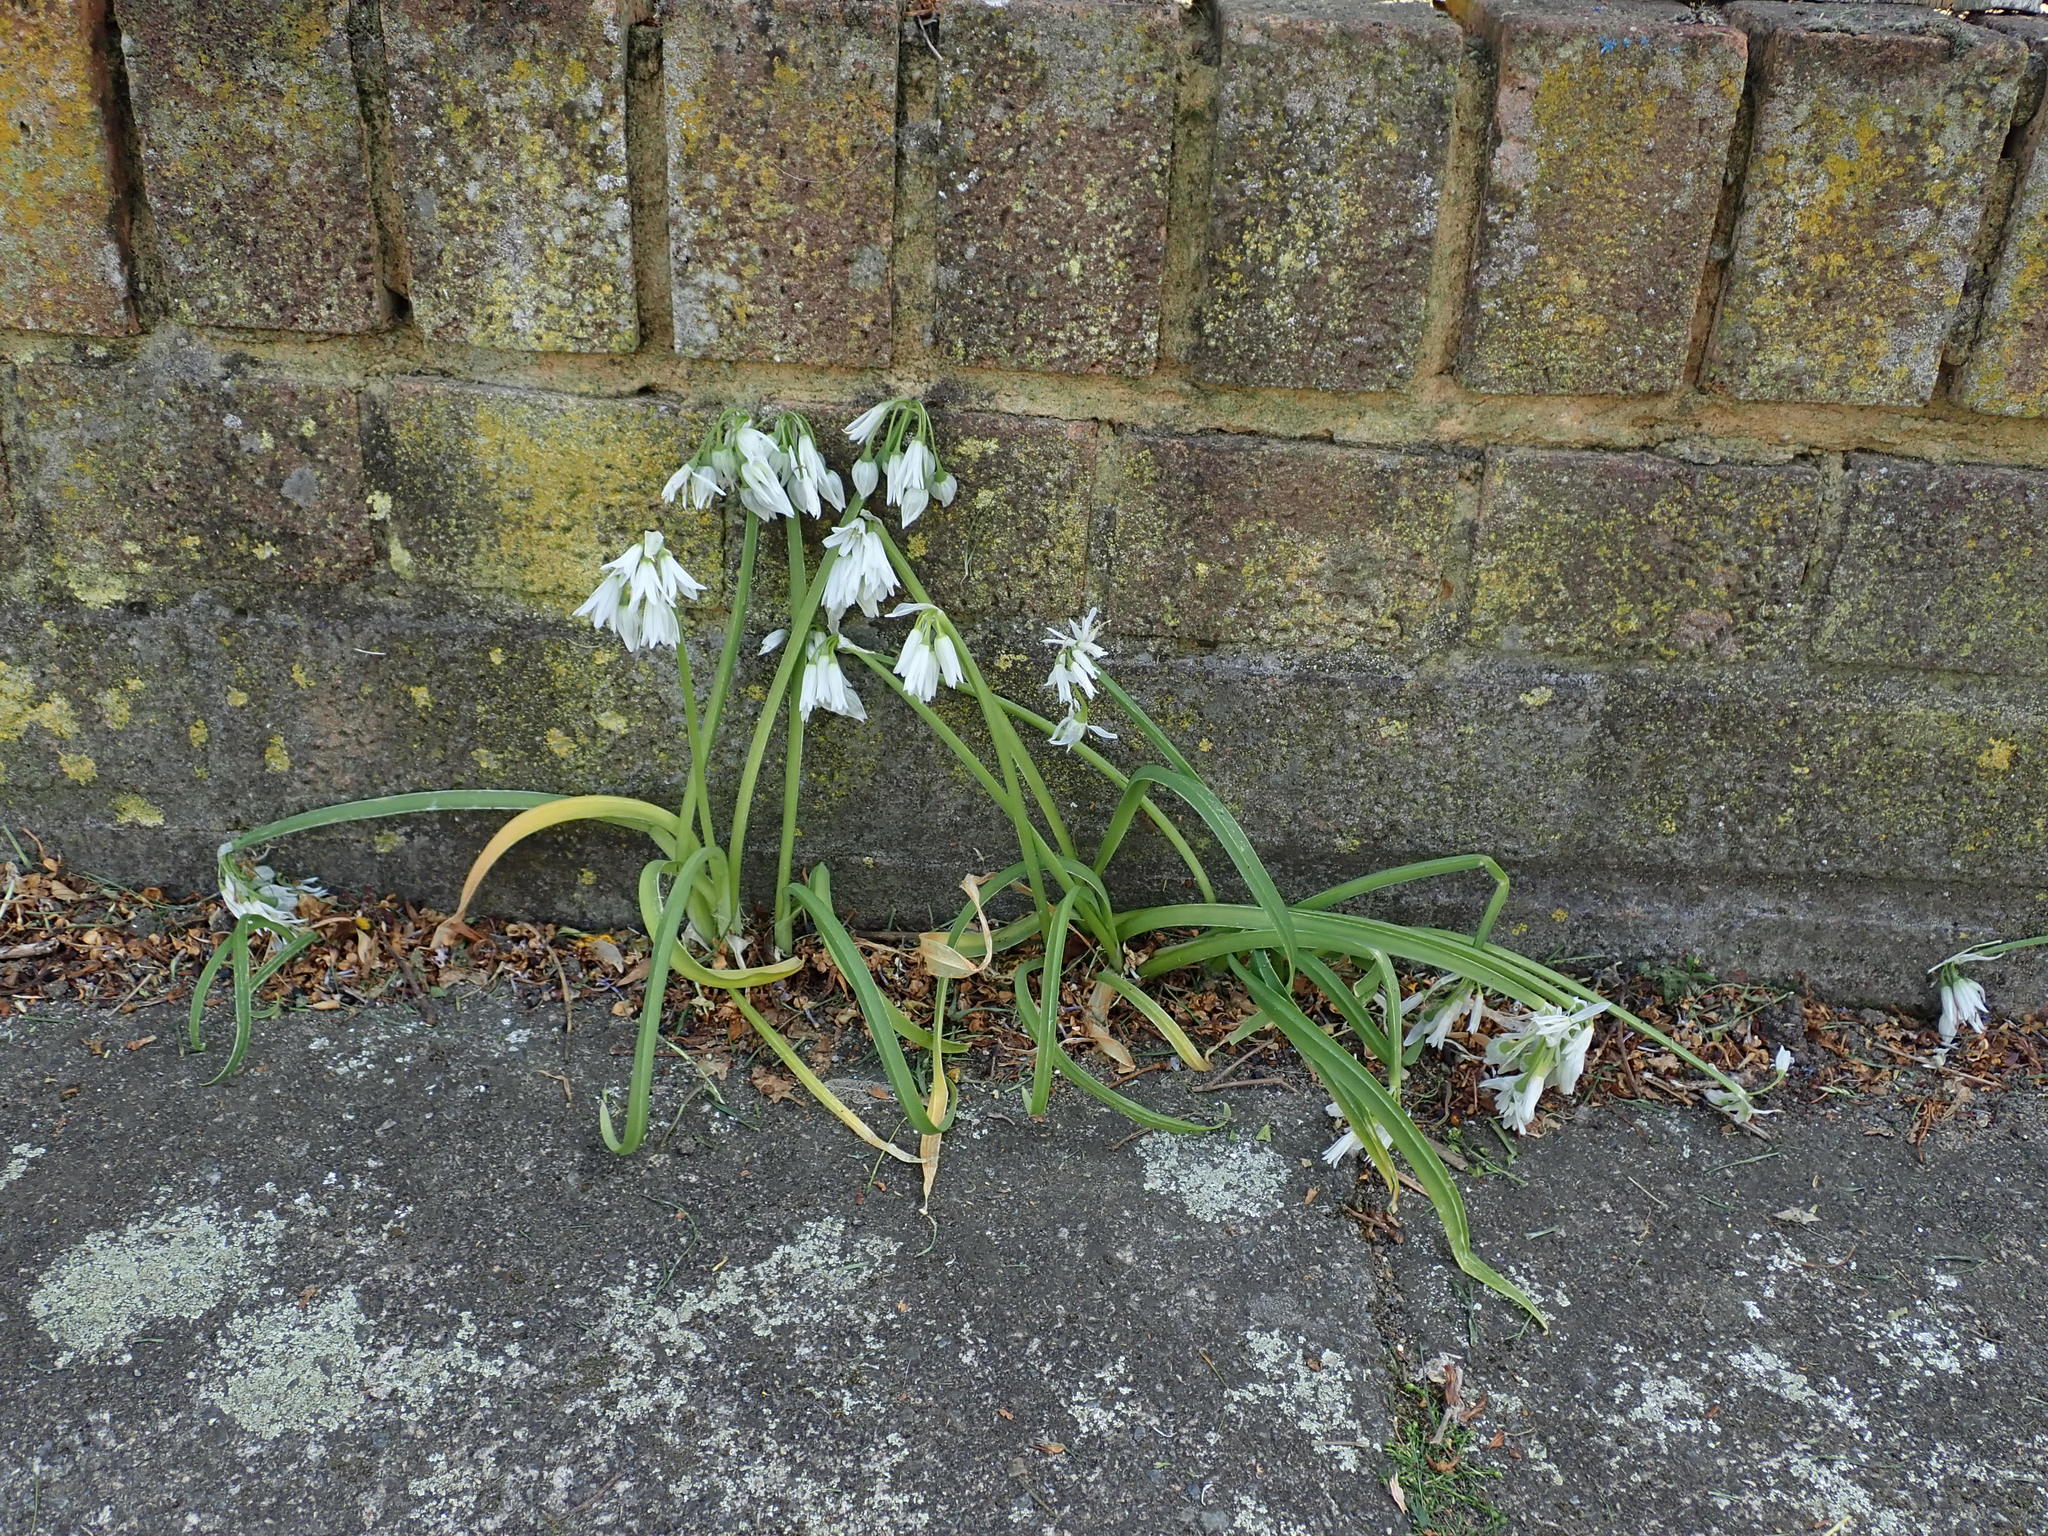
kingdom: Plantae
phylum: Tracheophyta
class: Liliopsida
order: Asparagales
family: Amaryllidaceae
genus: Allium
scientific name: Allium triquetrum
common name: Three-cornered garlic
